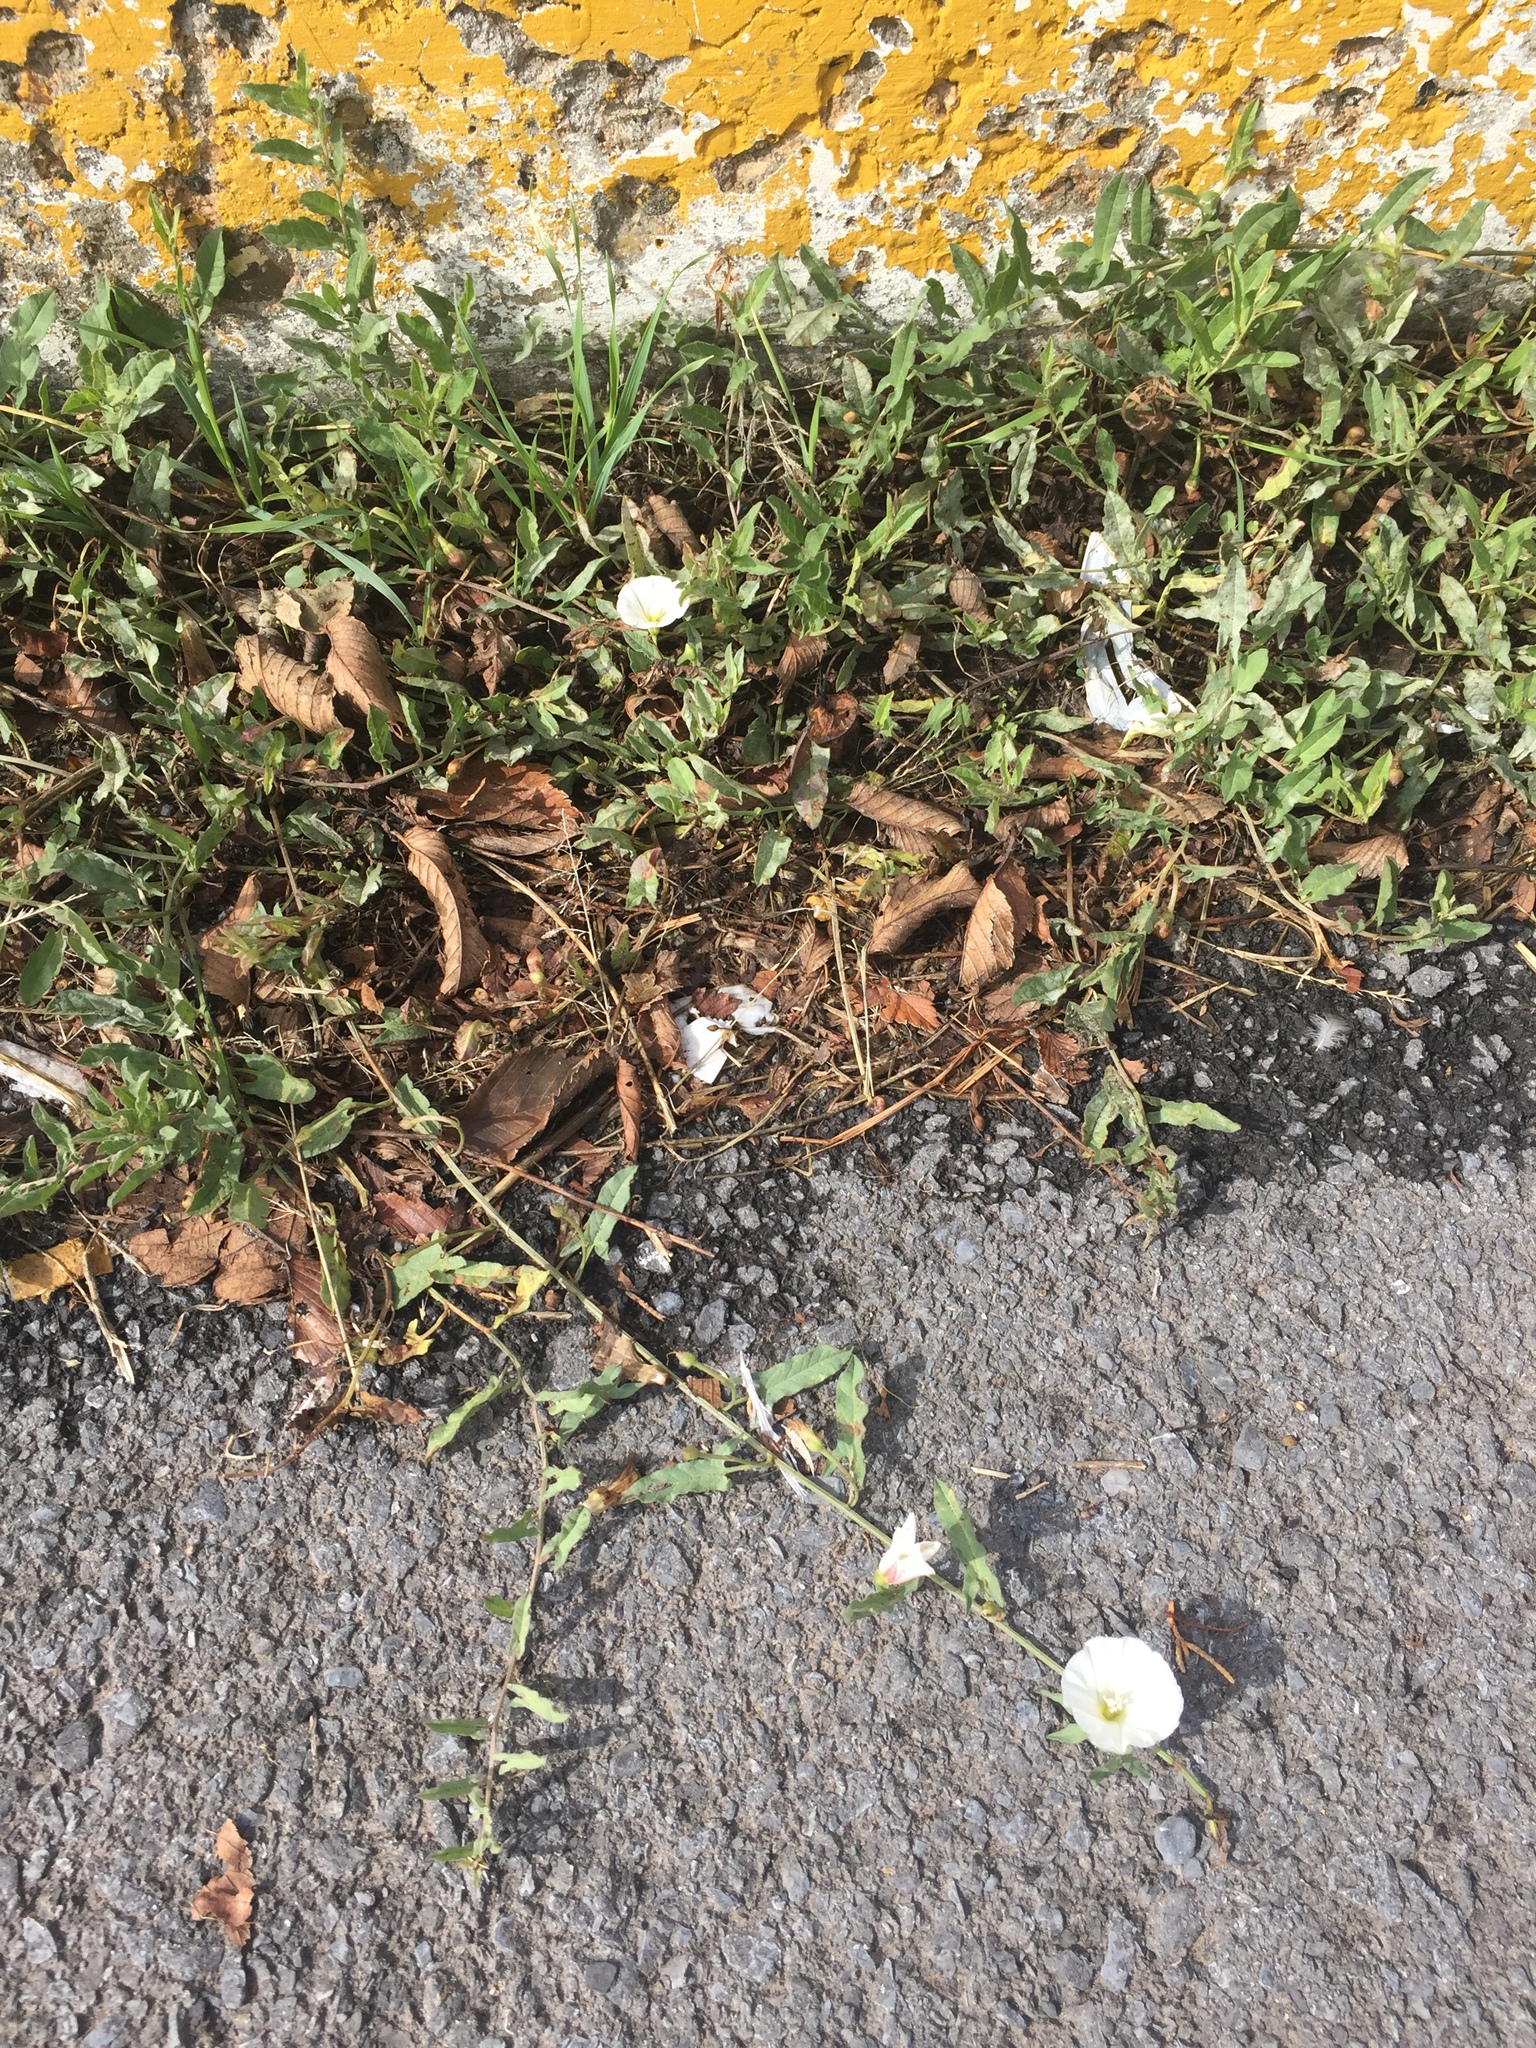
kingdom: Plantae
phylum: Tracheophyta
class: Magnoliopsida
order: Solanales
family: Convolvulaceae
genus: Convolvulus
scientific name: Convolvulus arvensis
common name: Field bindweed
